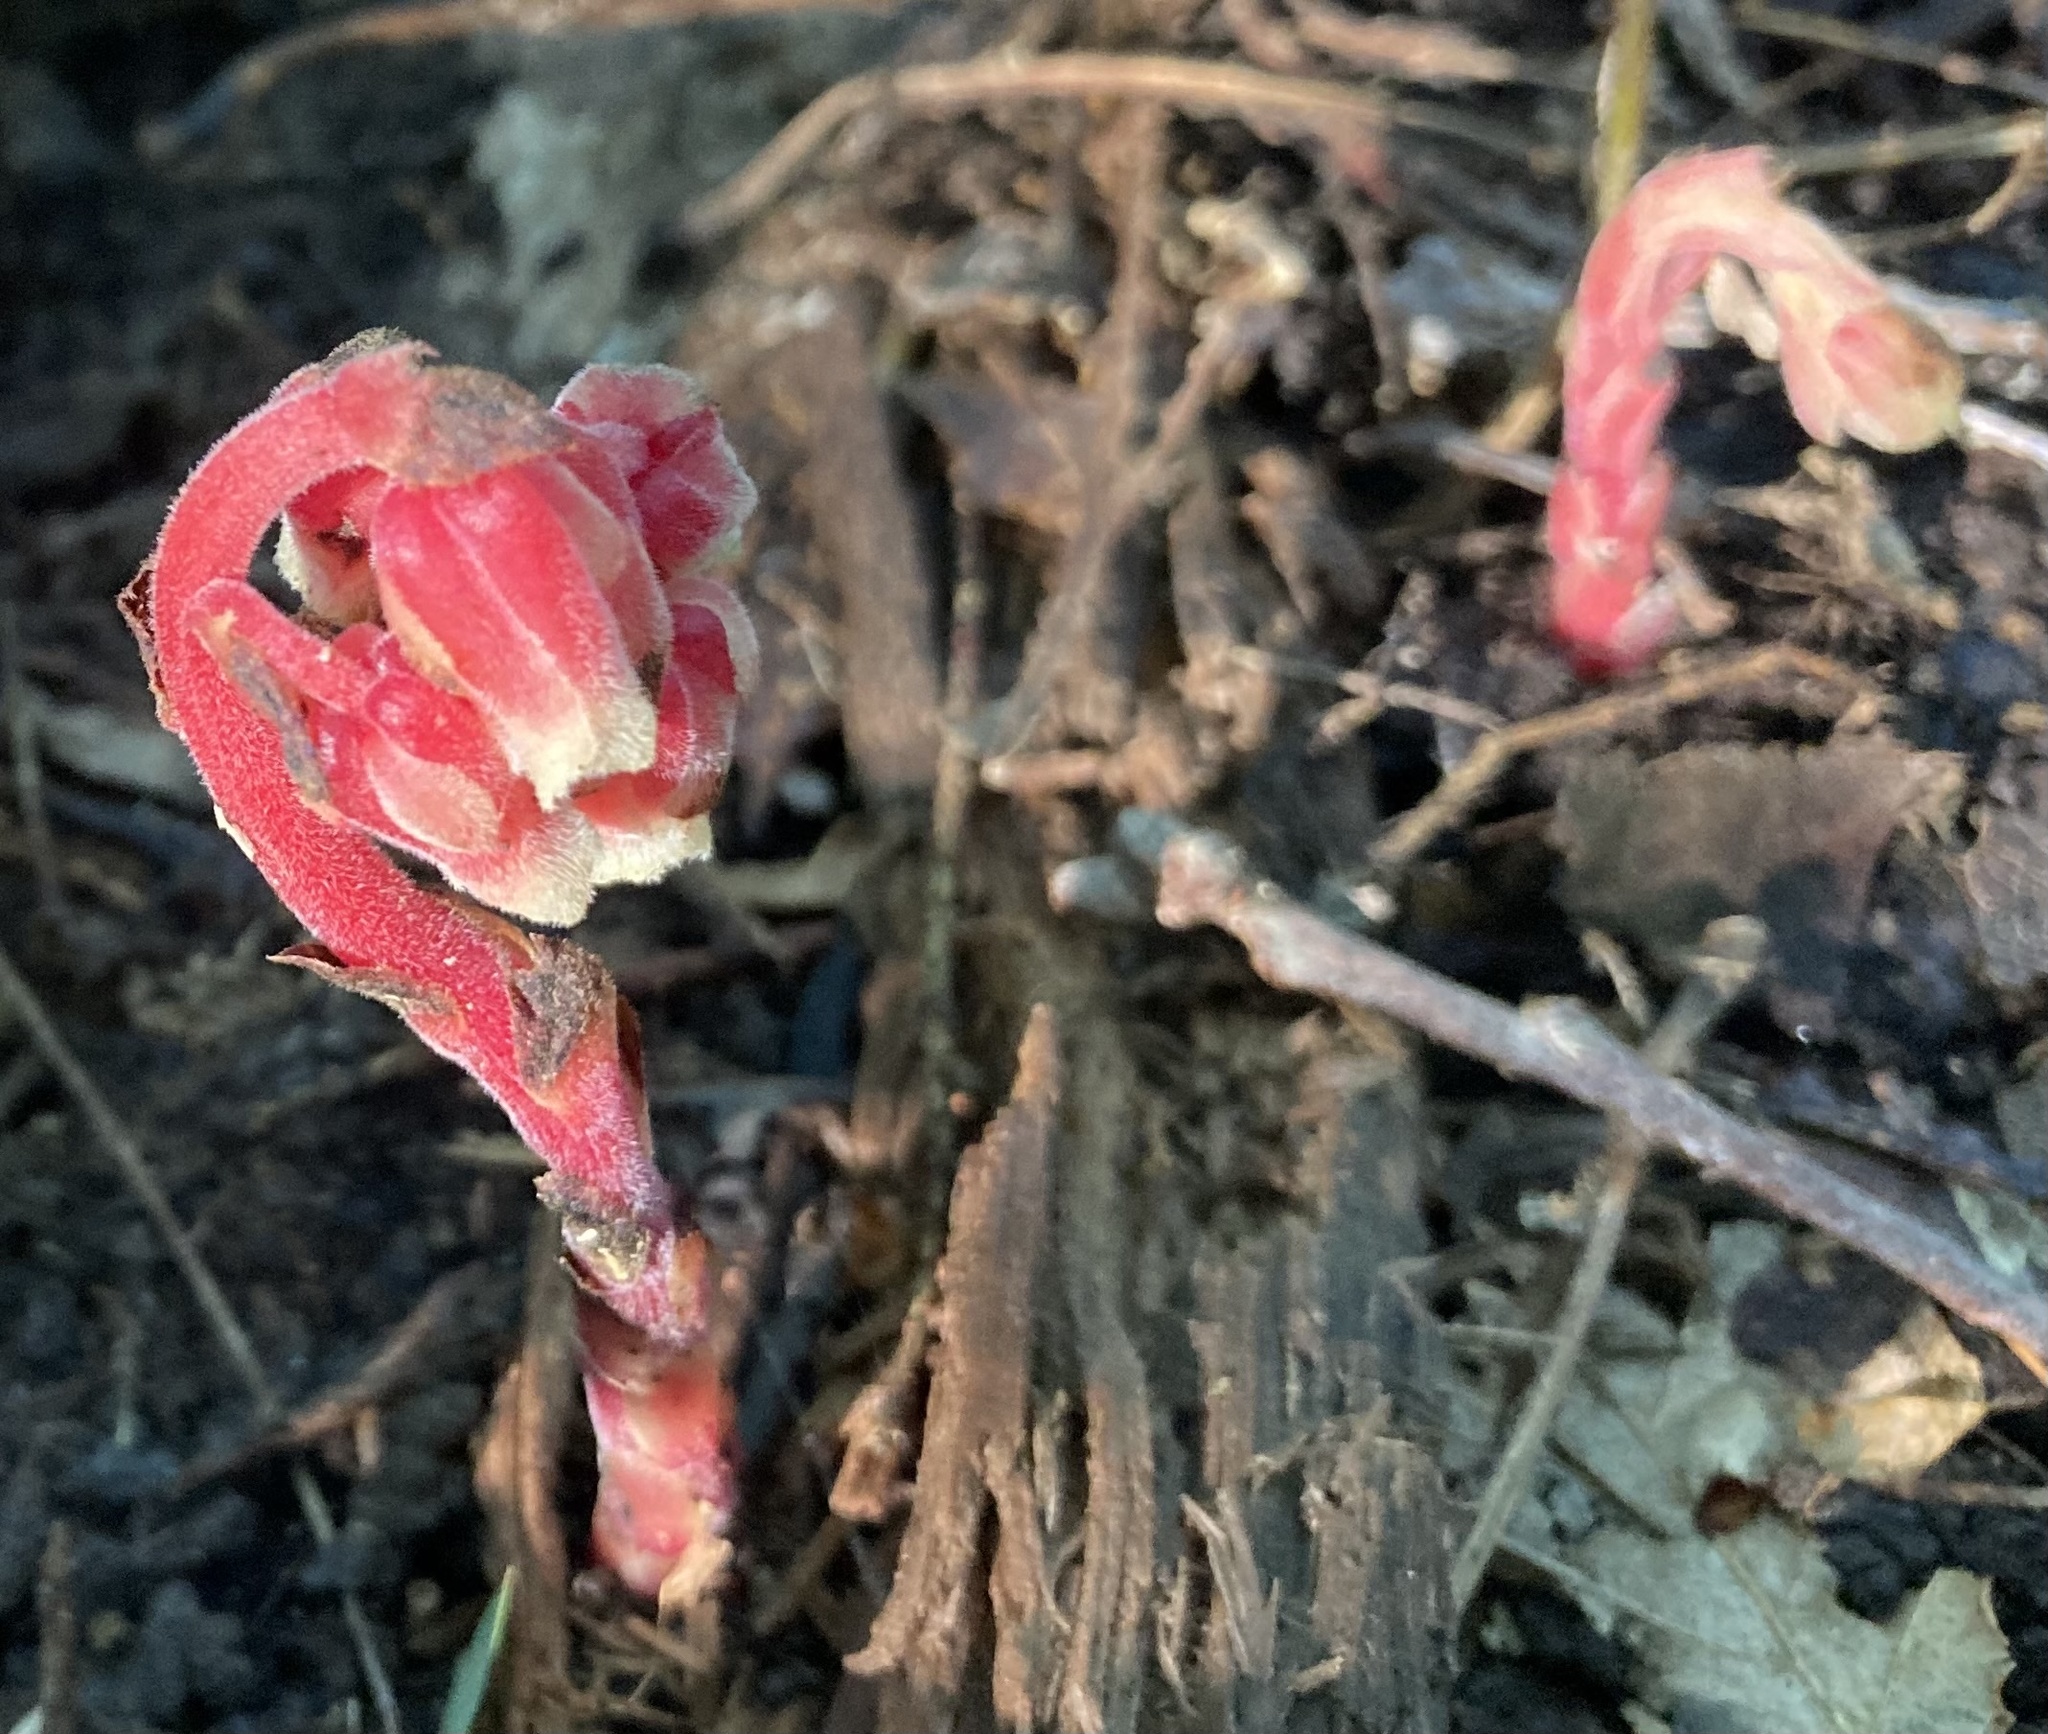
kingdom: Plantae
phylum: Tracheophyta
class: Magnoliopsida
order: Ericales
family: Ericaceae
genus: Hypopitys
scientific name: Hypopitys monotropa
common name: Yellow bird's-nest
